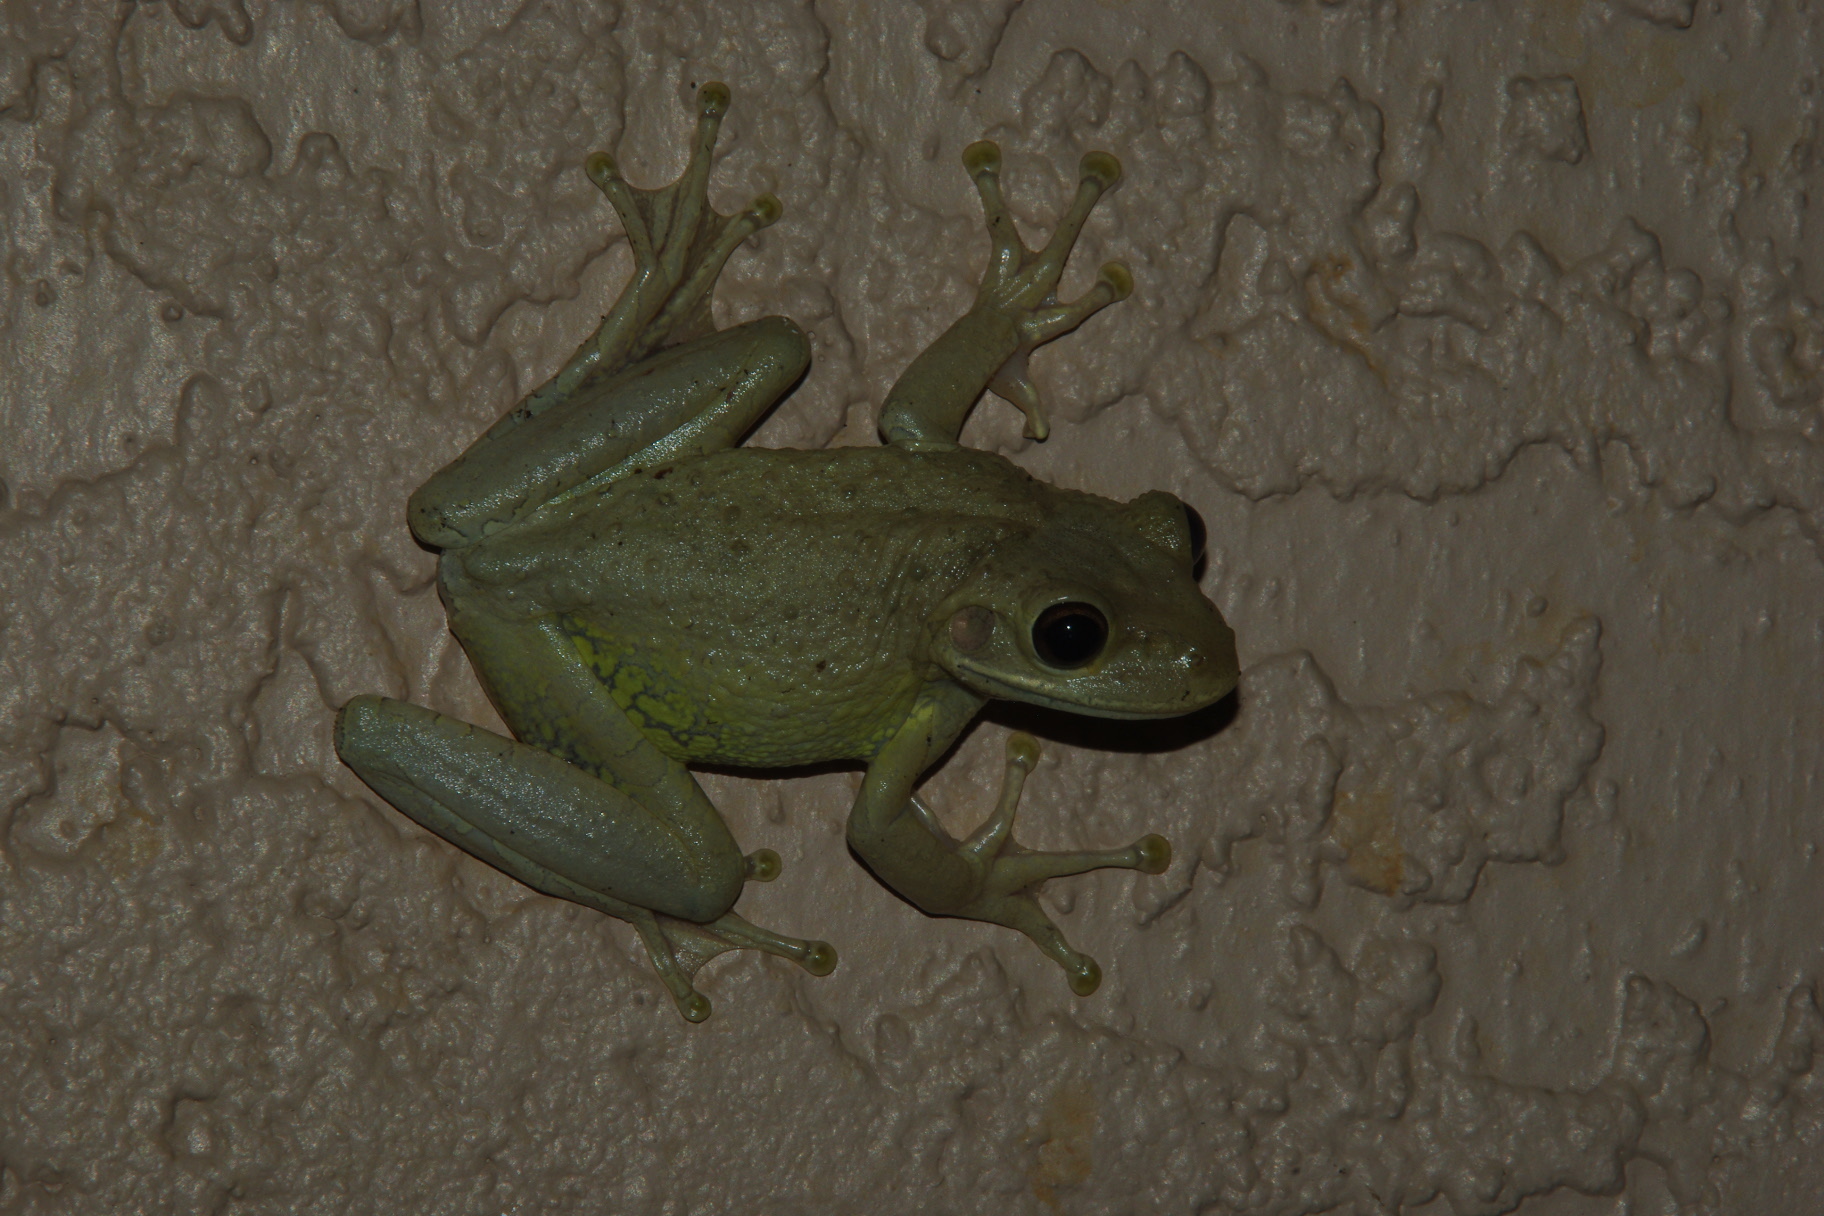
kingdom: Animalia
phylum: Chordata
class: Amphibia
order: Anura
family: Hylidae
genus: Osteopilus
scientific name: Osteopilus septentrionalis
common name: Cuban treefrog
